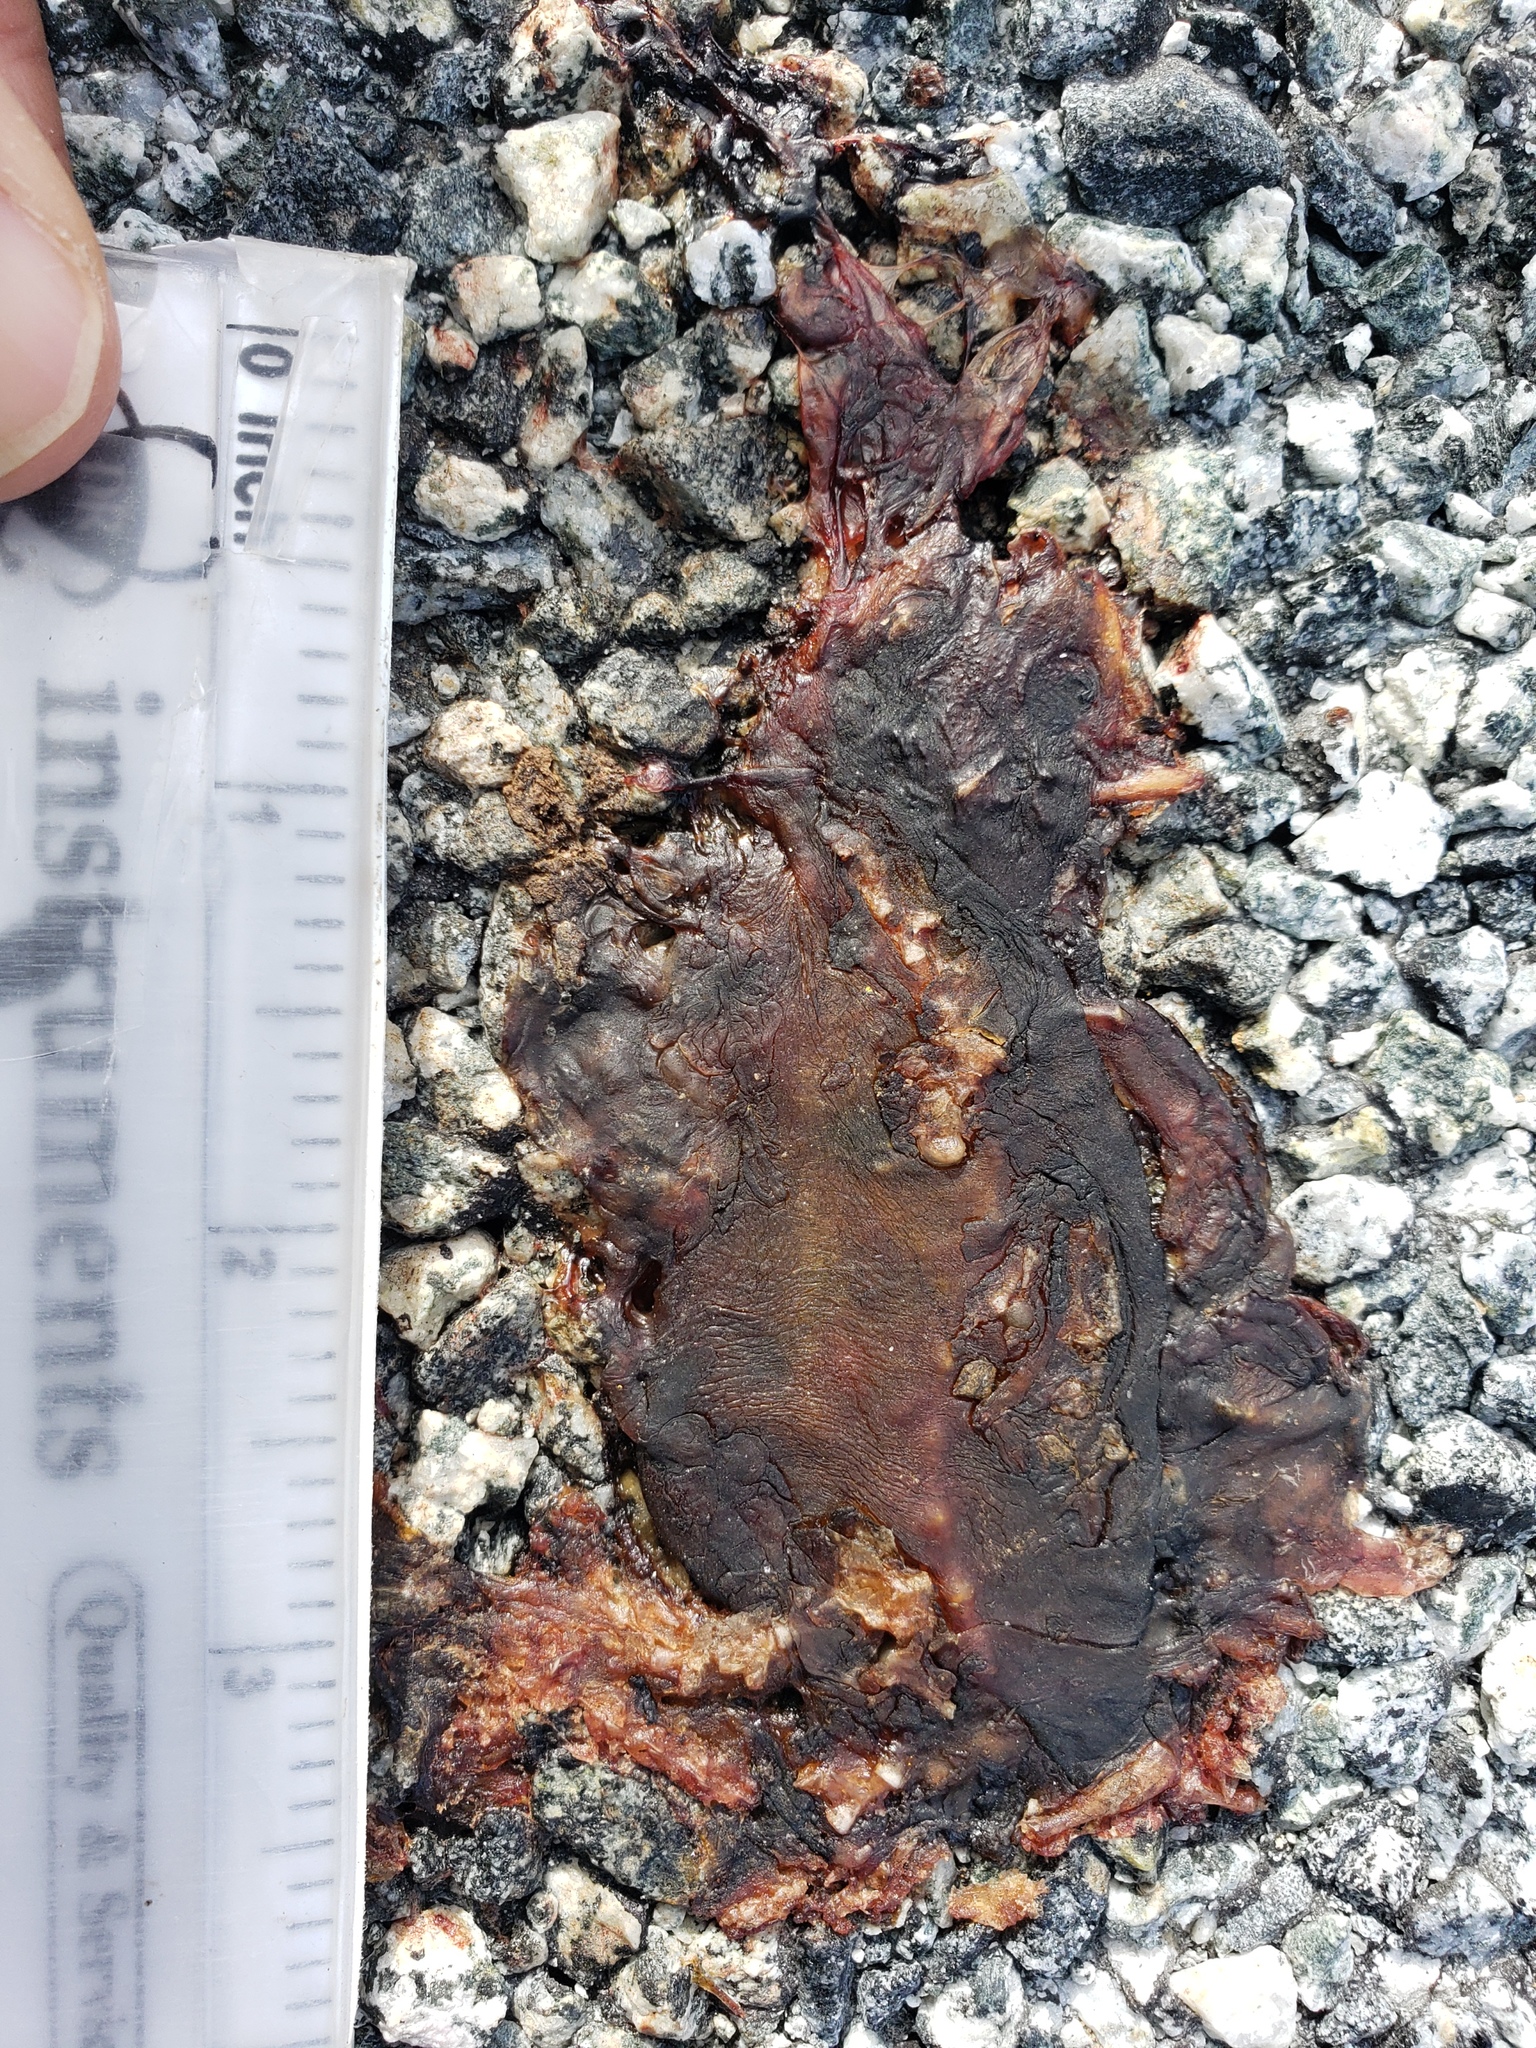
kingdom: Animalia
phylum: Chordata
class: Amphibia
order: Caudata
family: Salamandridae
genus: Taricha
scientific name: Taricha
